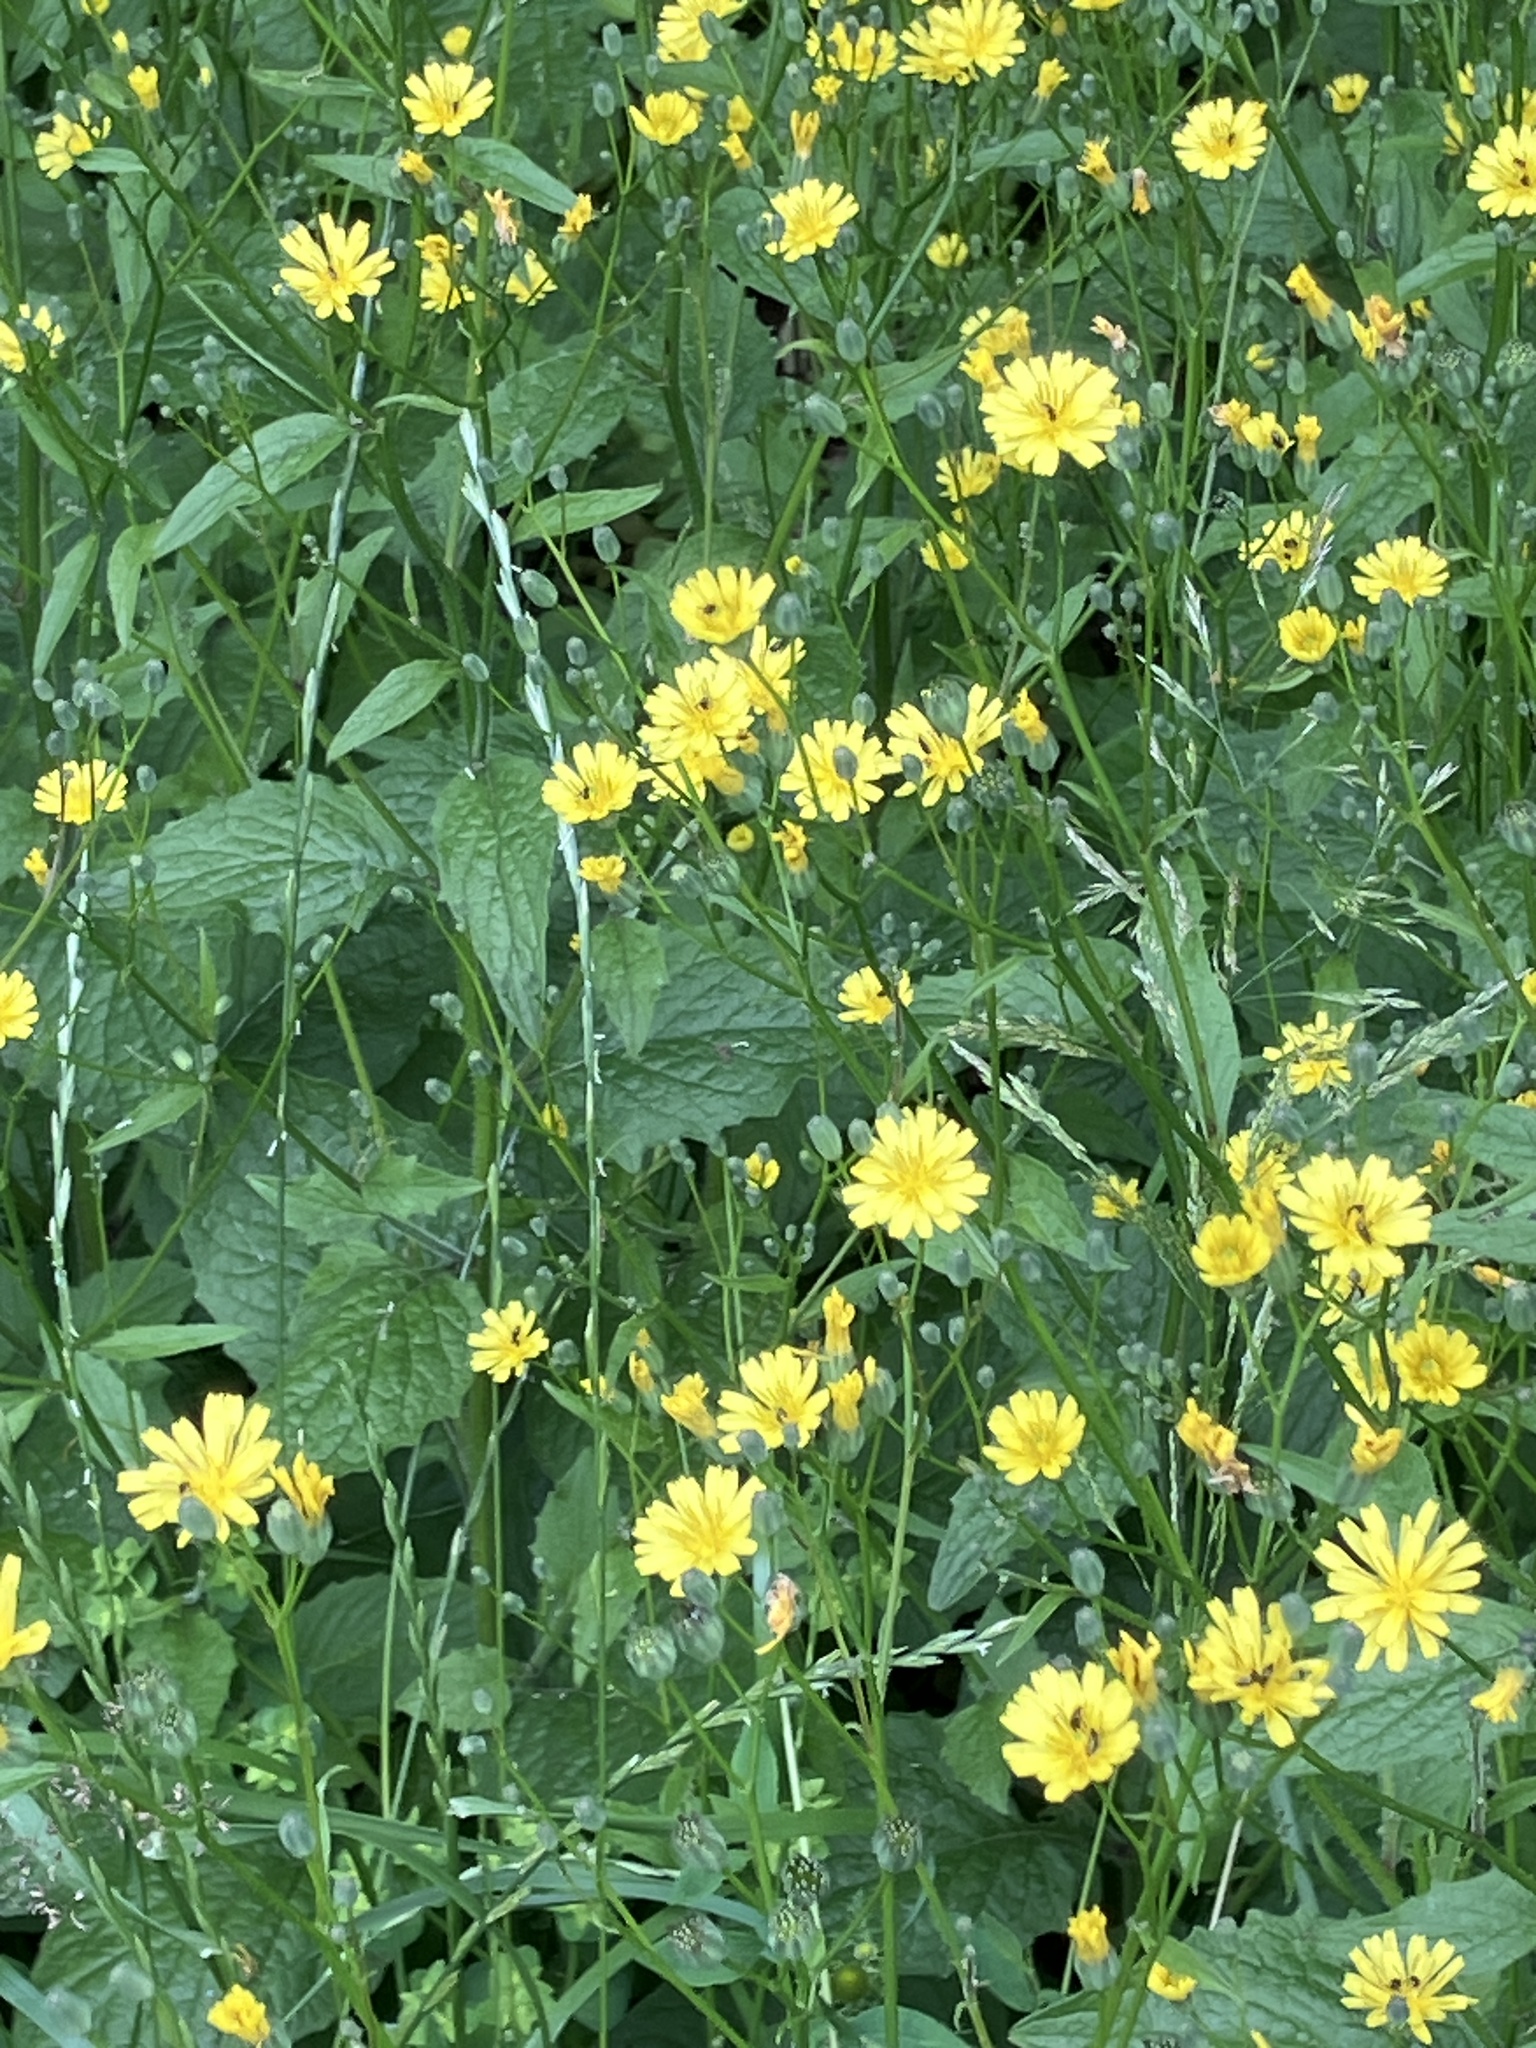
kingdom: Plantae
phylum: Tracheophyta
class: Magnoliopsida
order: Asterales
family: Asteraceae
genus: Lapsana
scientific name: Lapsana communis
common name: Nipplewort
